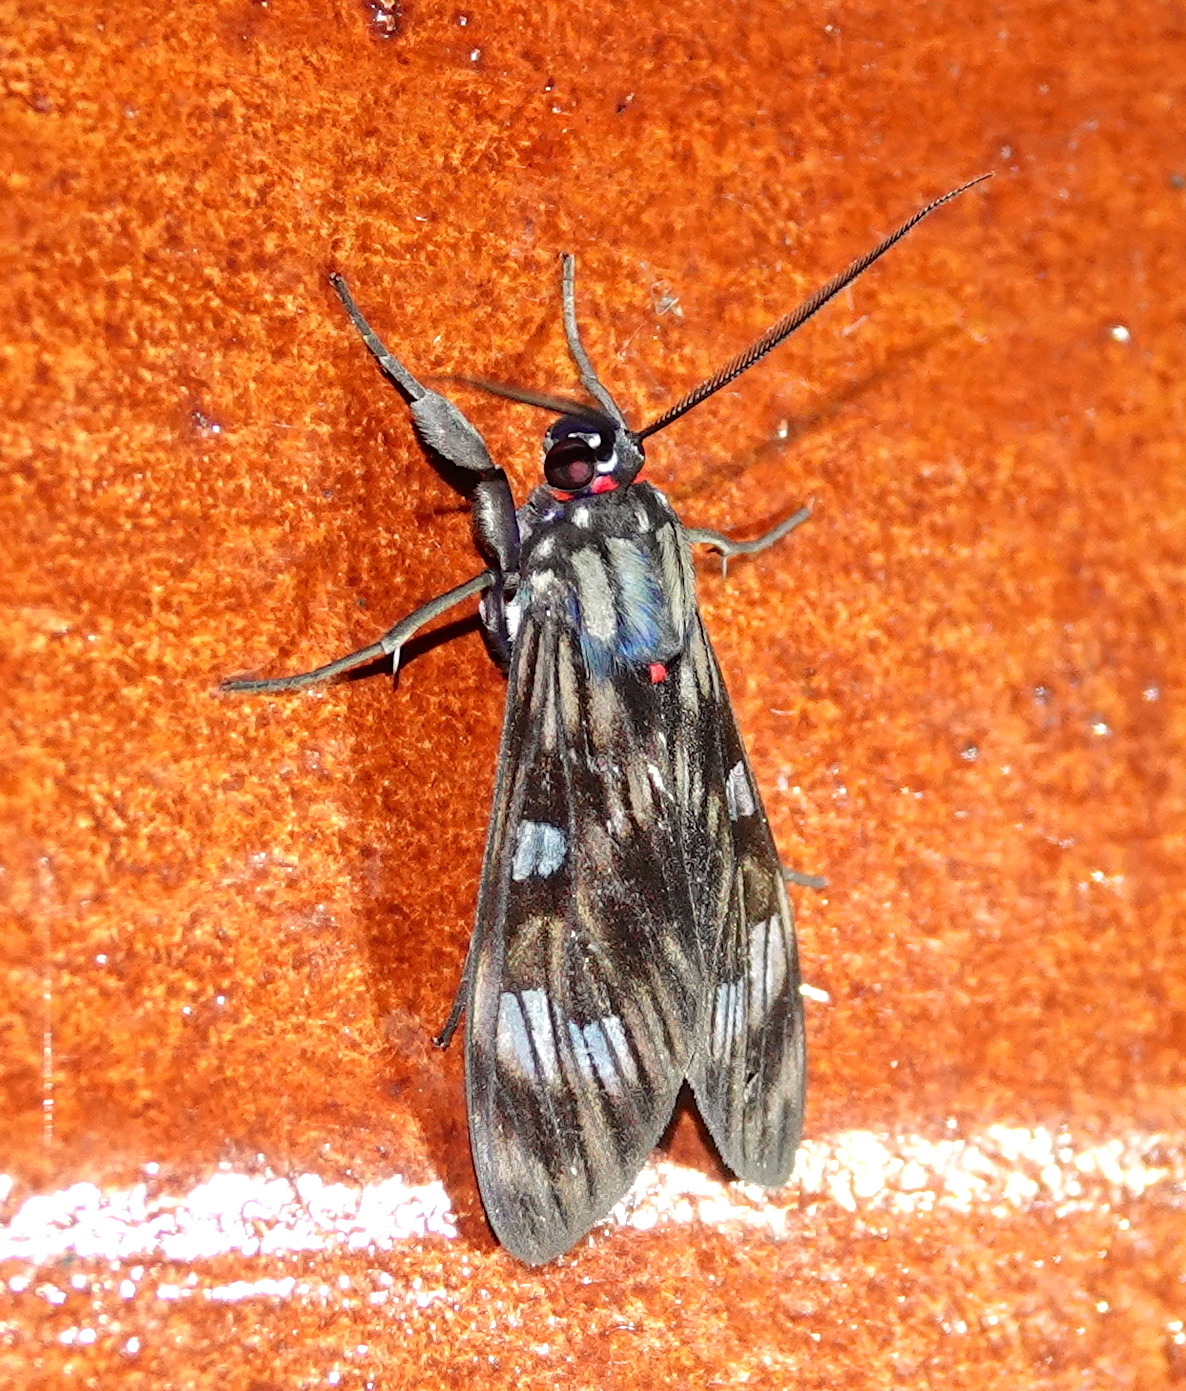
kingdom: Animalia
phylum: Arthropoda
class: Insecta
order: Lepidoptera
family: Erebidae
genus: Episcepsis
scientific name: Episcepsis
